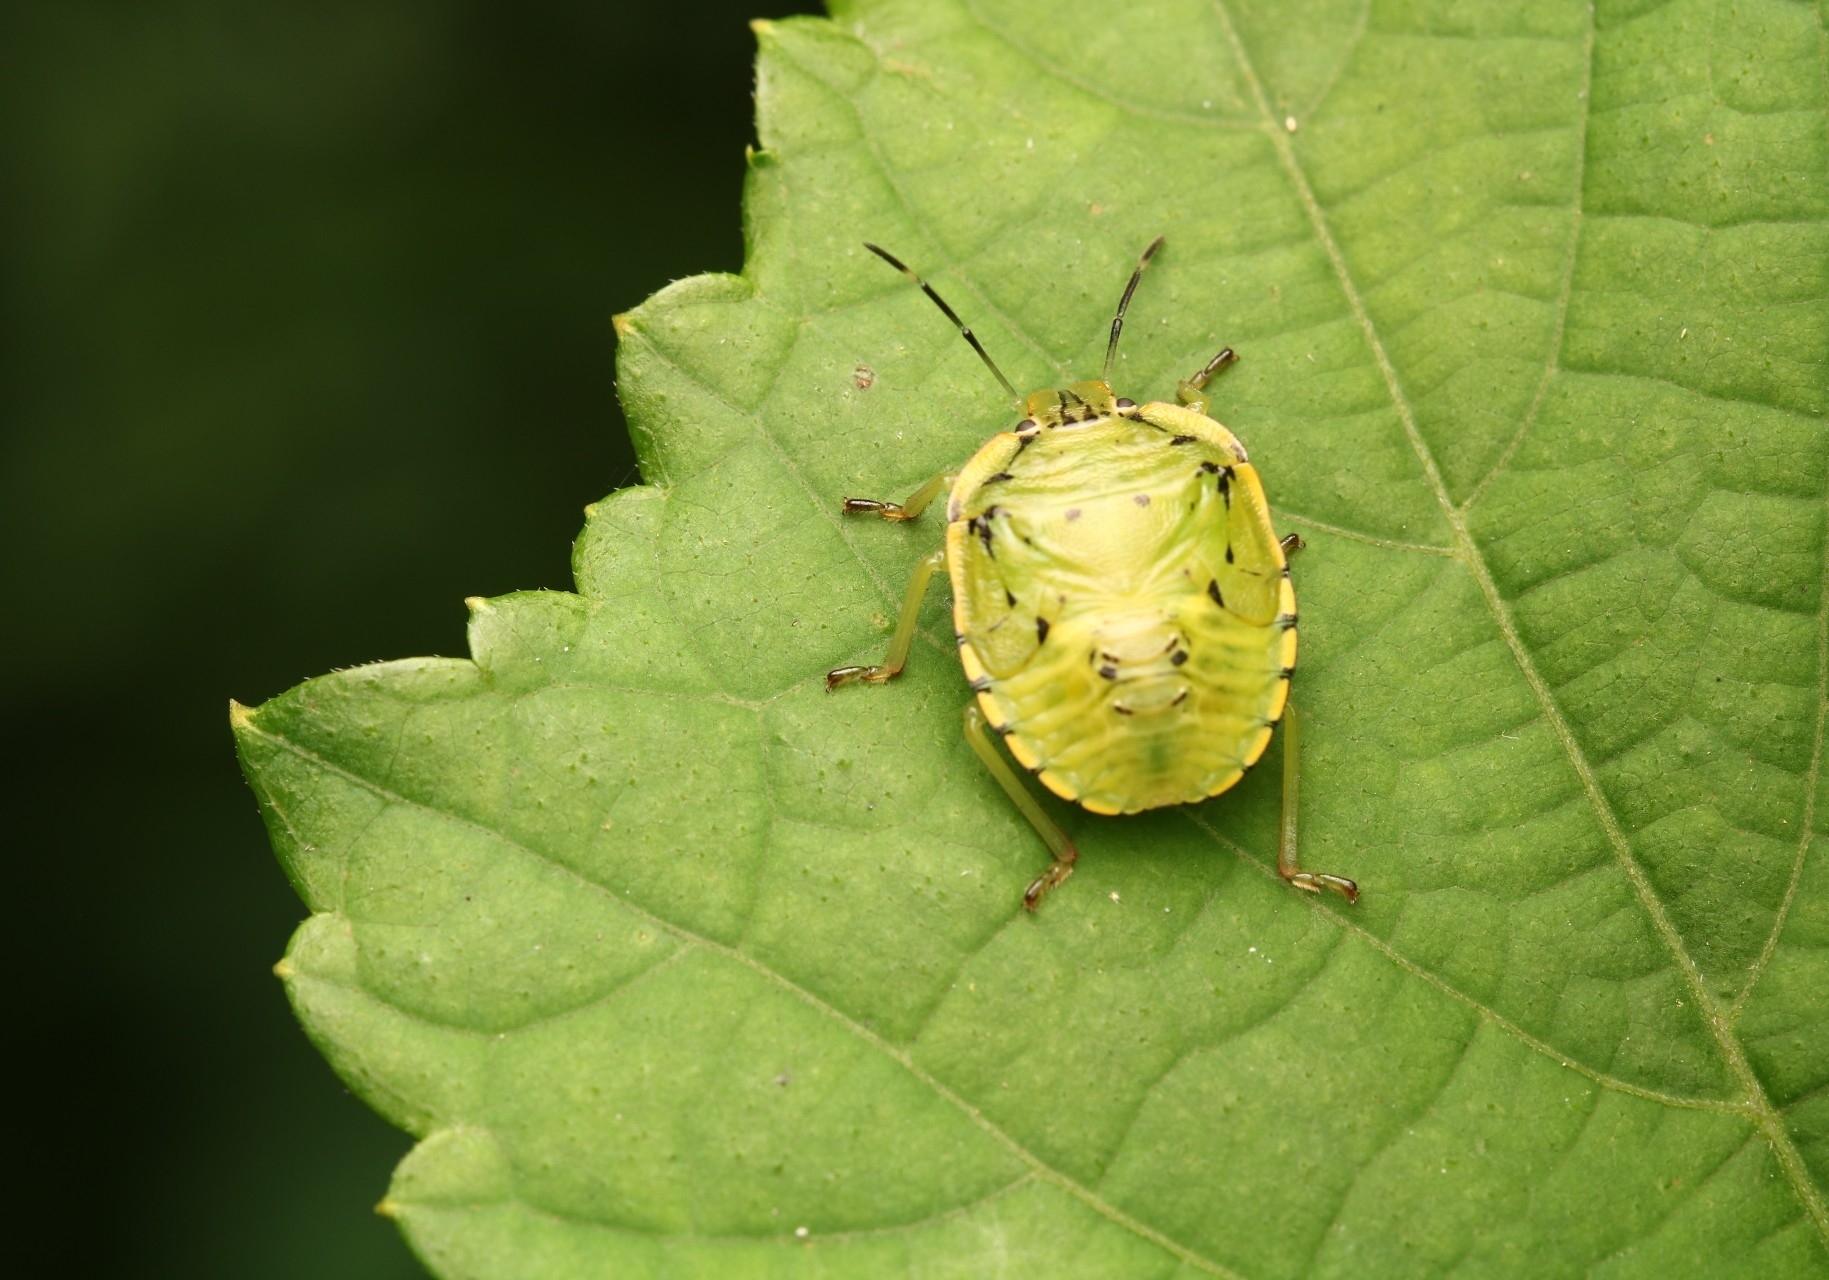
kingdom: Animalia
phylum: Arthropoda
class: Insecta
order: Hemiptera
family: Pentatomidae
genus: Chinavia
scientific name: Chinavia hilaris
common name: Green stink bug
